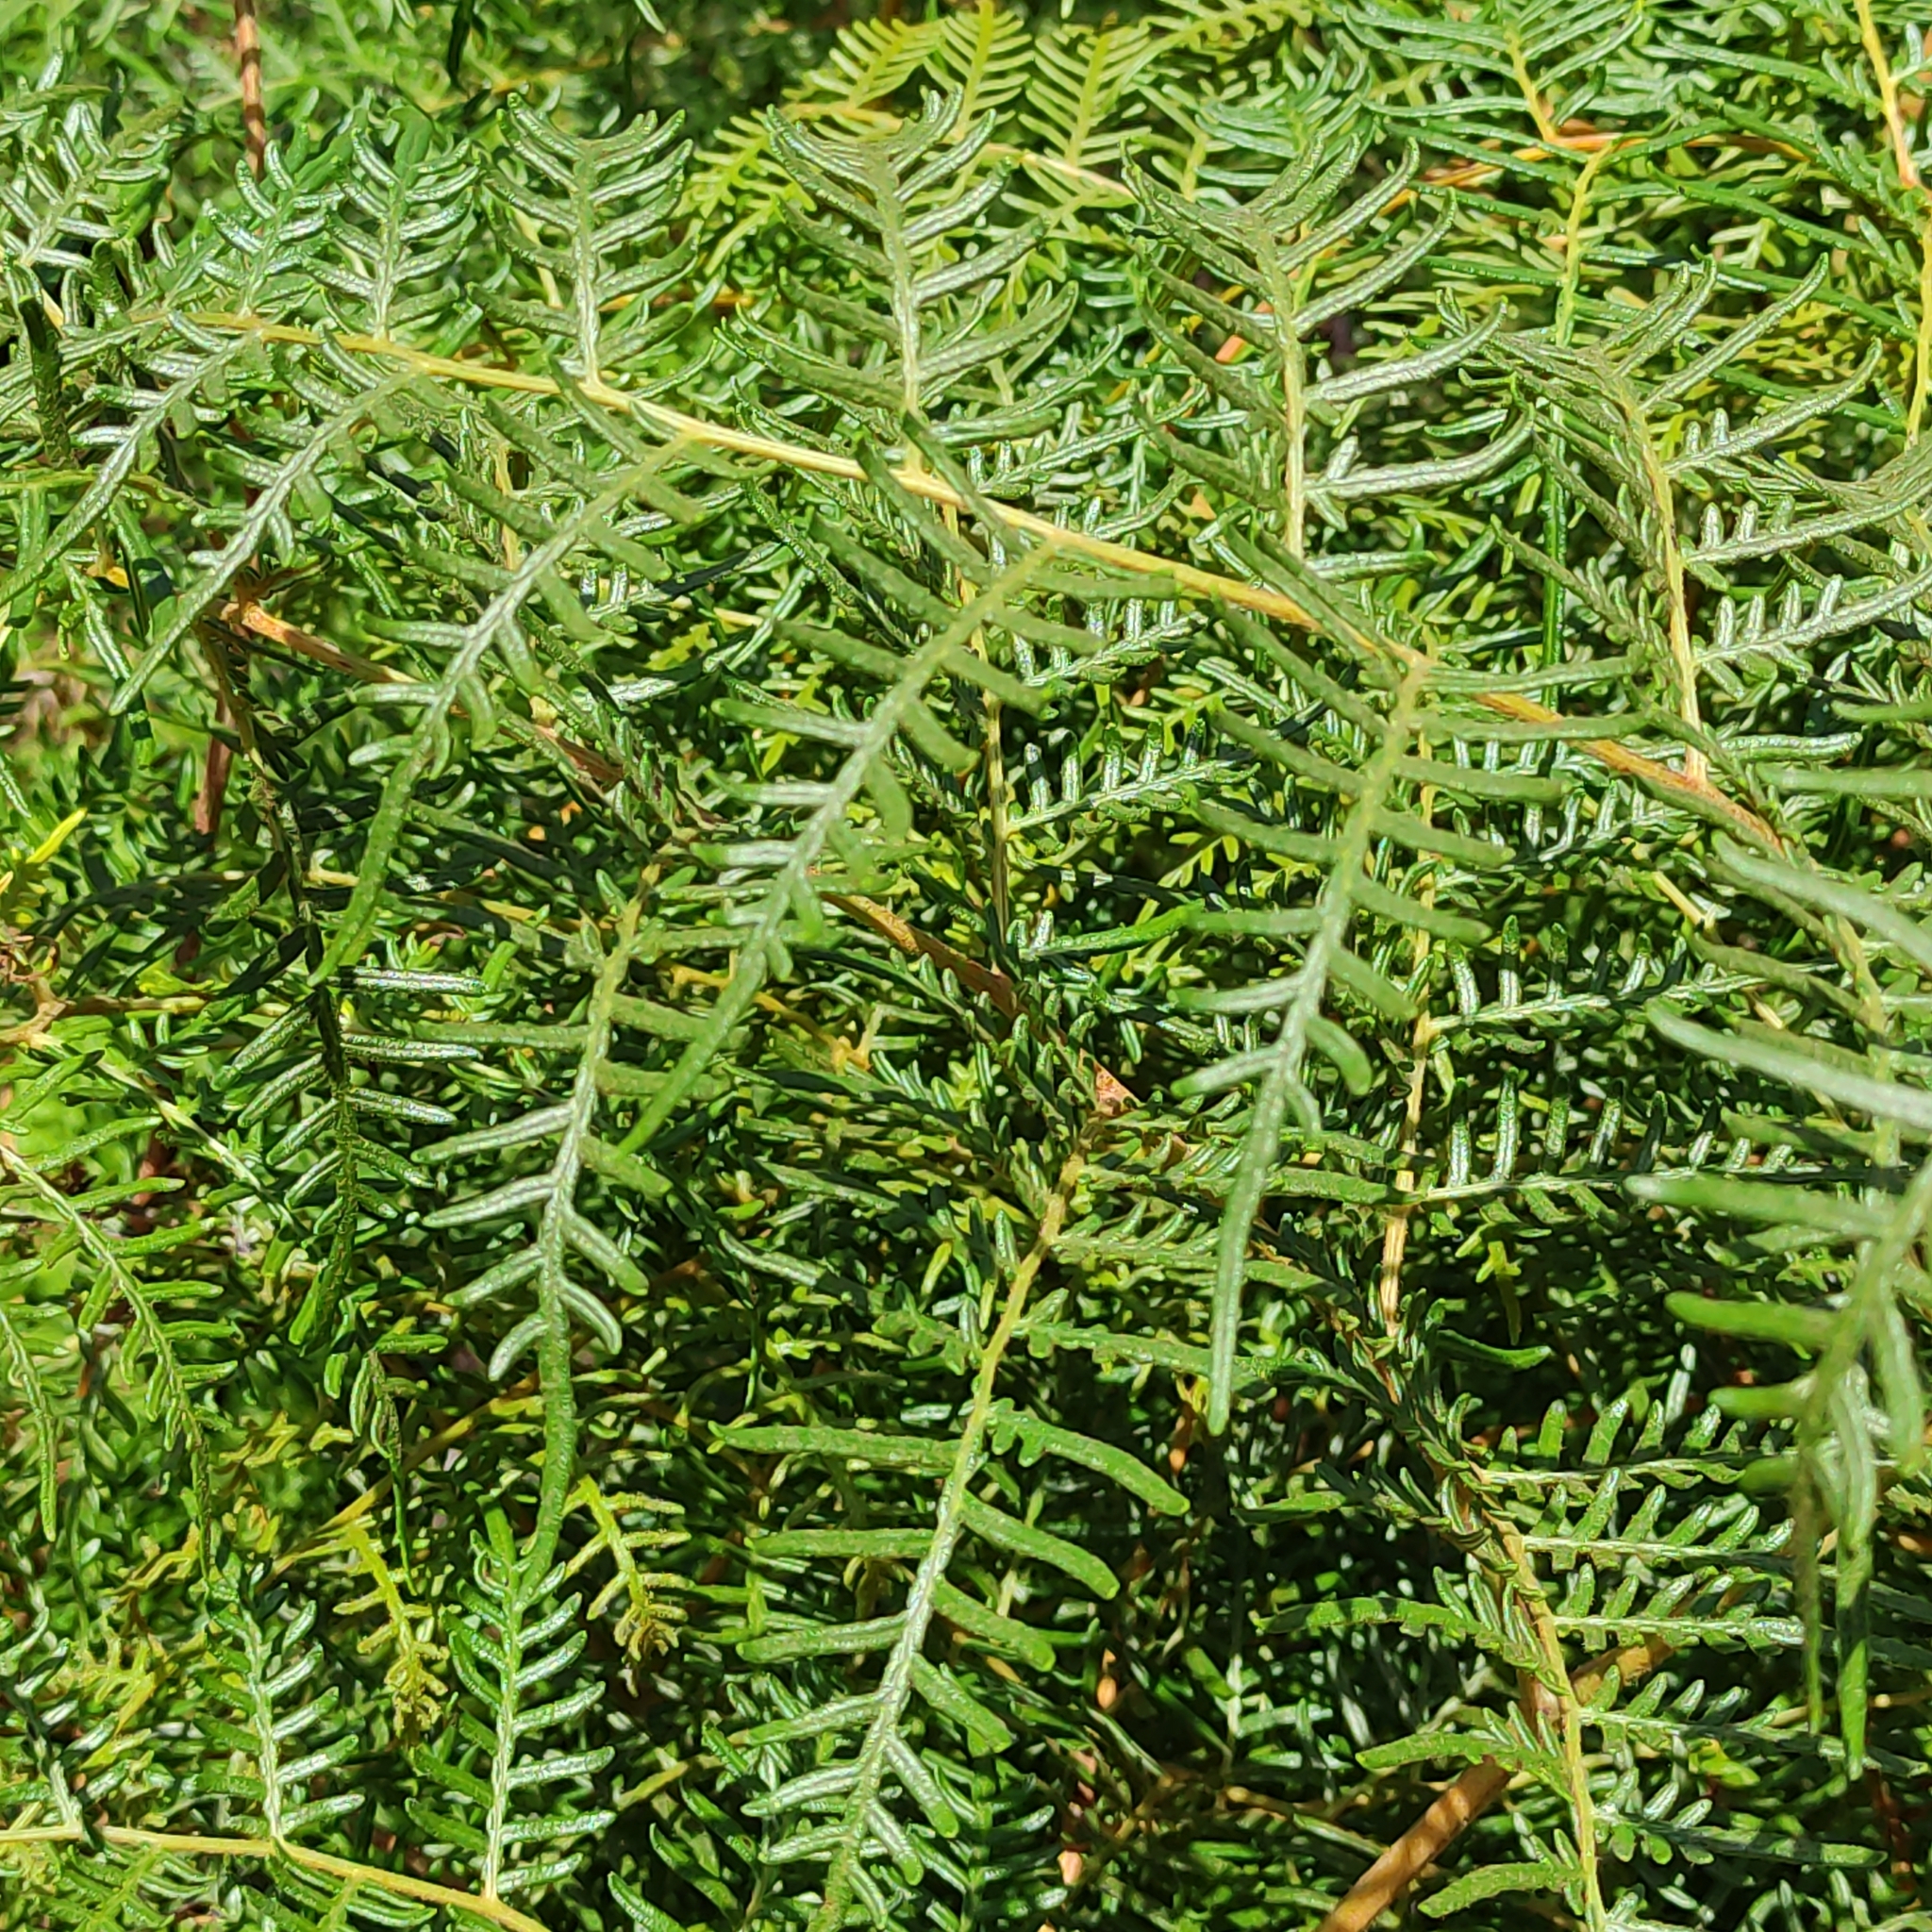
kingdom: Plantae
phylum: Tracheophyta
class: Polypodiopsida
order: Polypodiales
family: Dennstaedtiaceae
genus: Pteridium
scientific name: Pteridium esculentum
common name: Bracken fern
